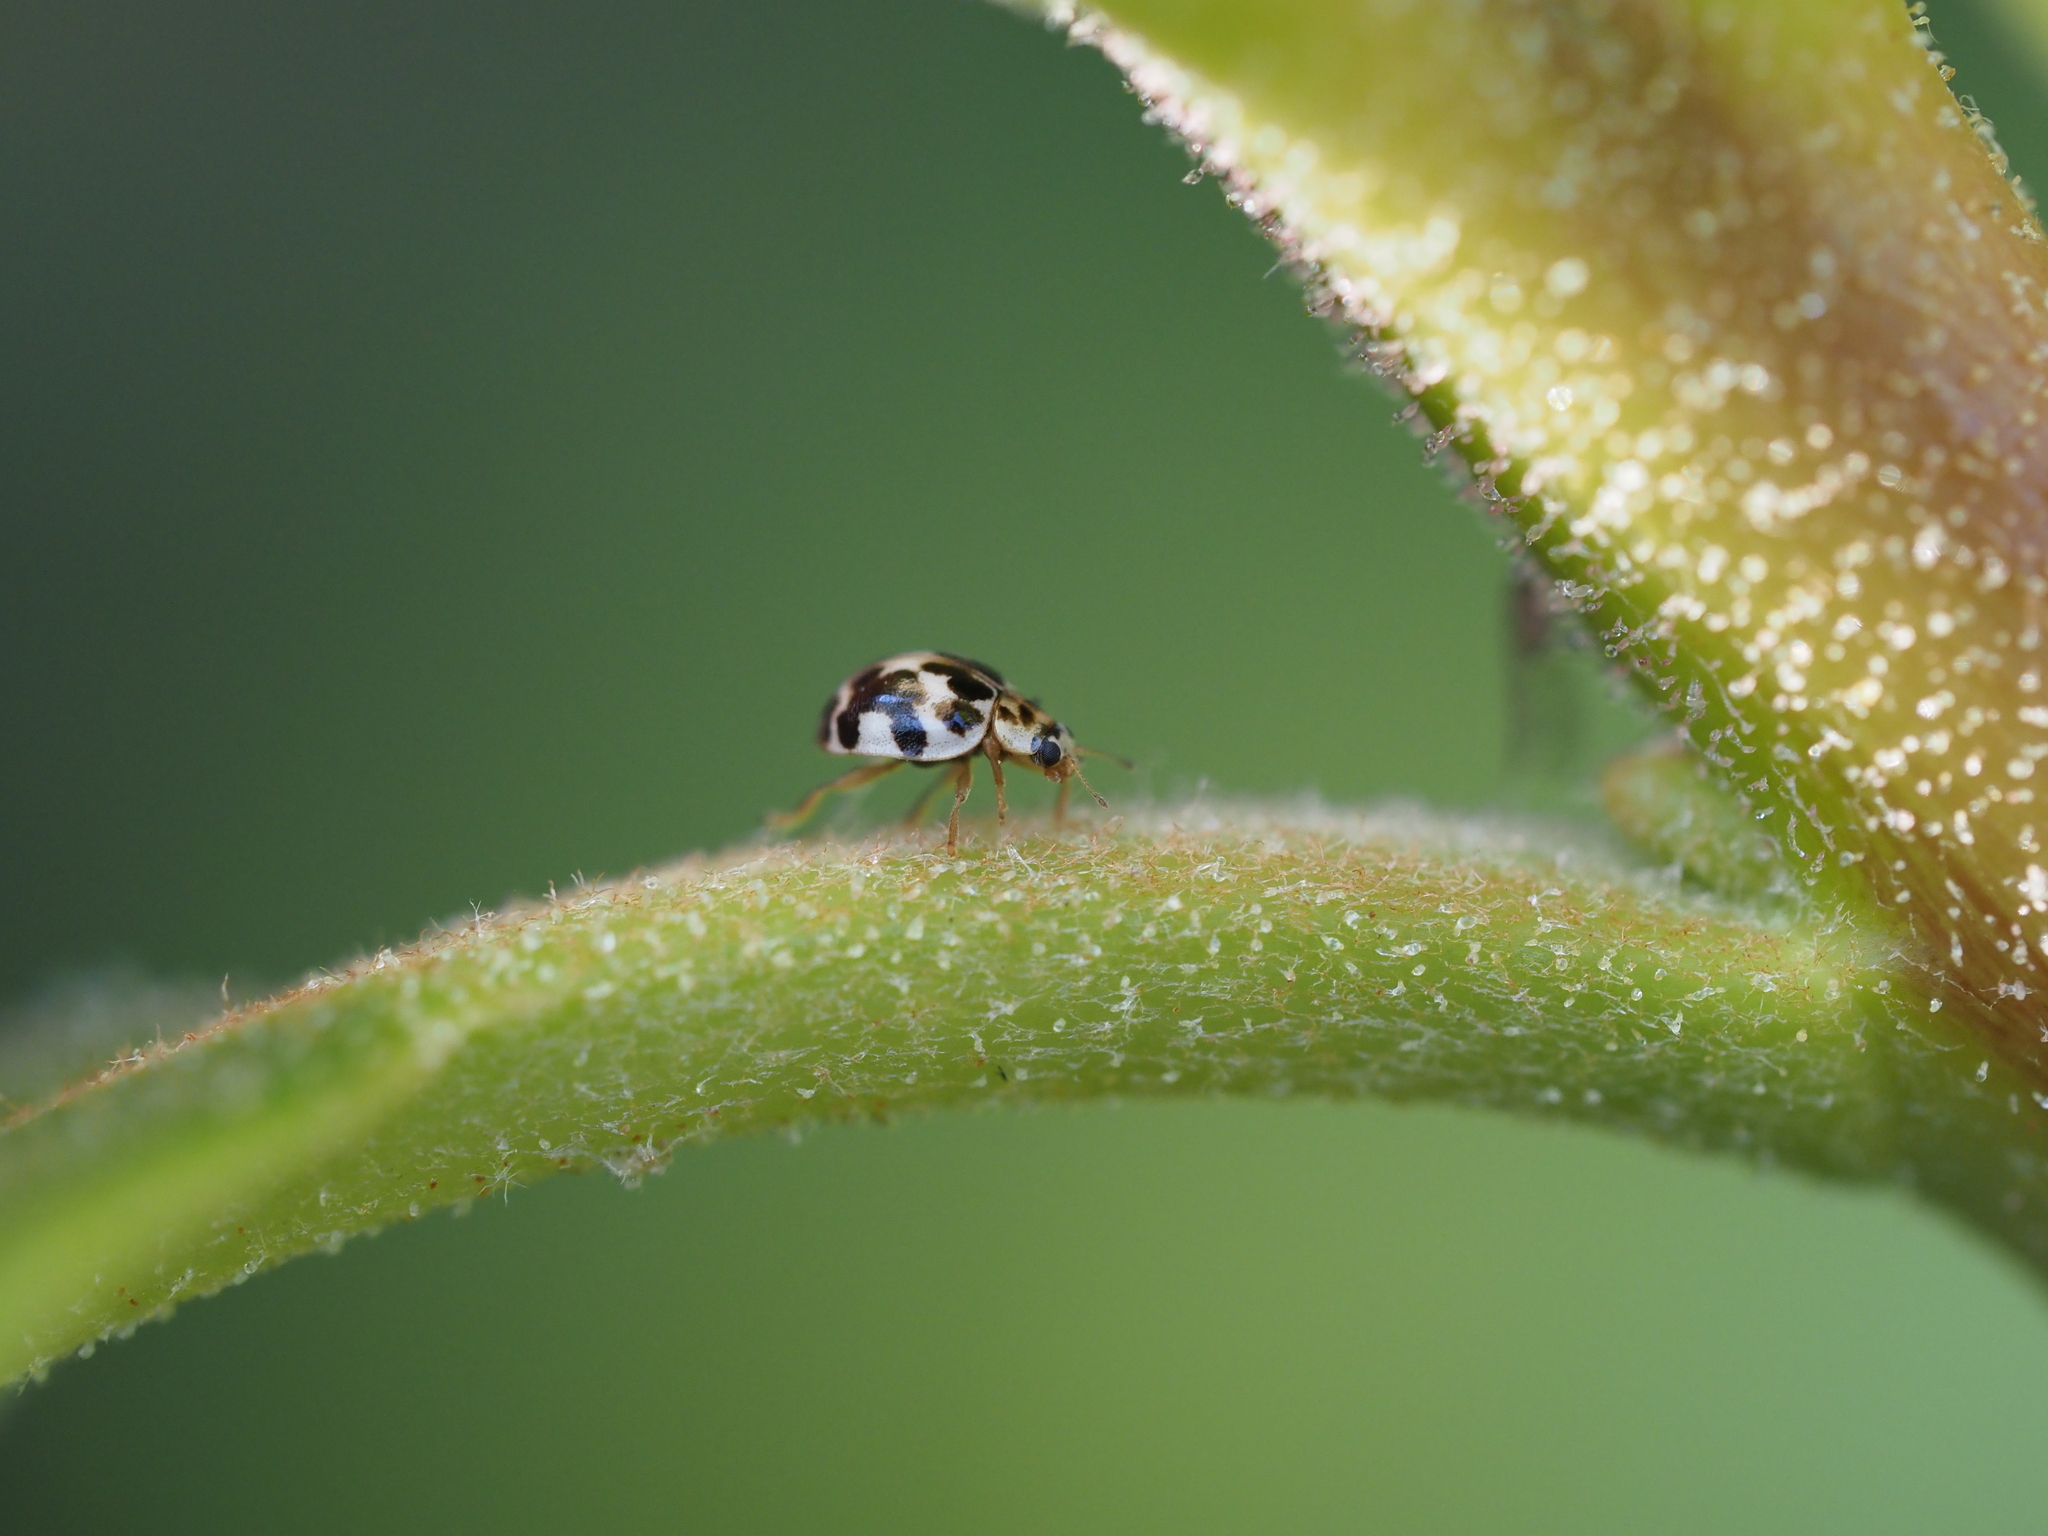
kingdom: Animalia
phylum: Arthropoda
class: Insecta
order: Coleoptera
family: Coccinellidae
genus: Psyllobora
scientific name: Psyllobora vigintimaculata
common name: Ladybird beetle
